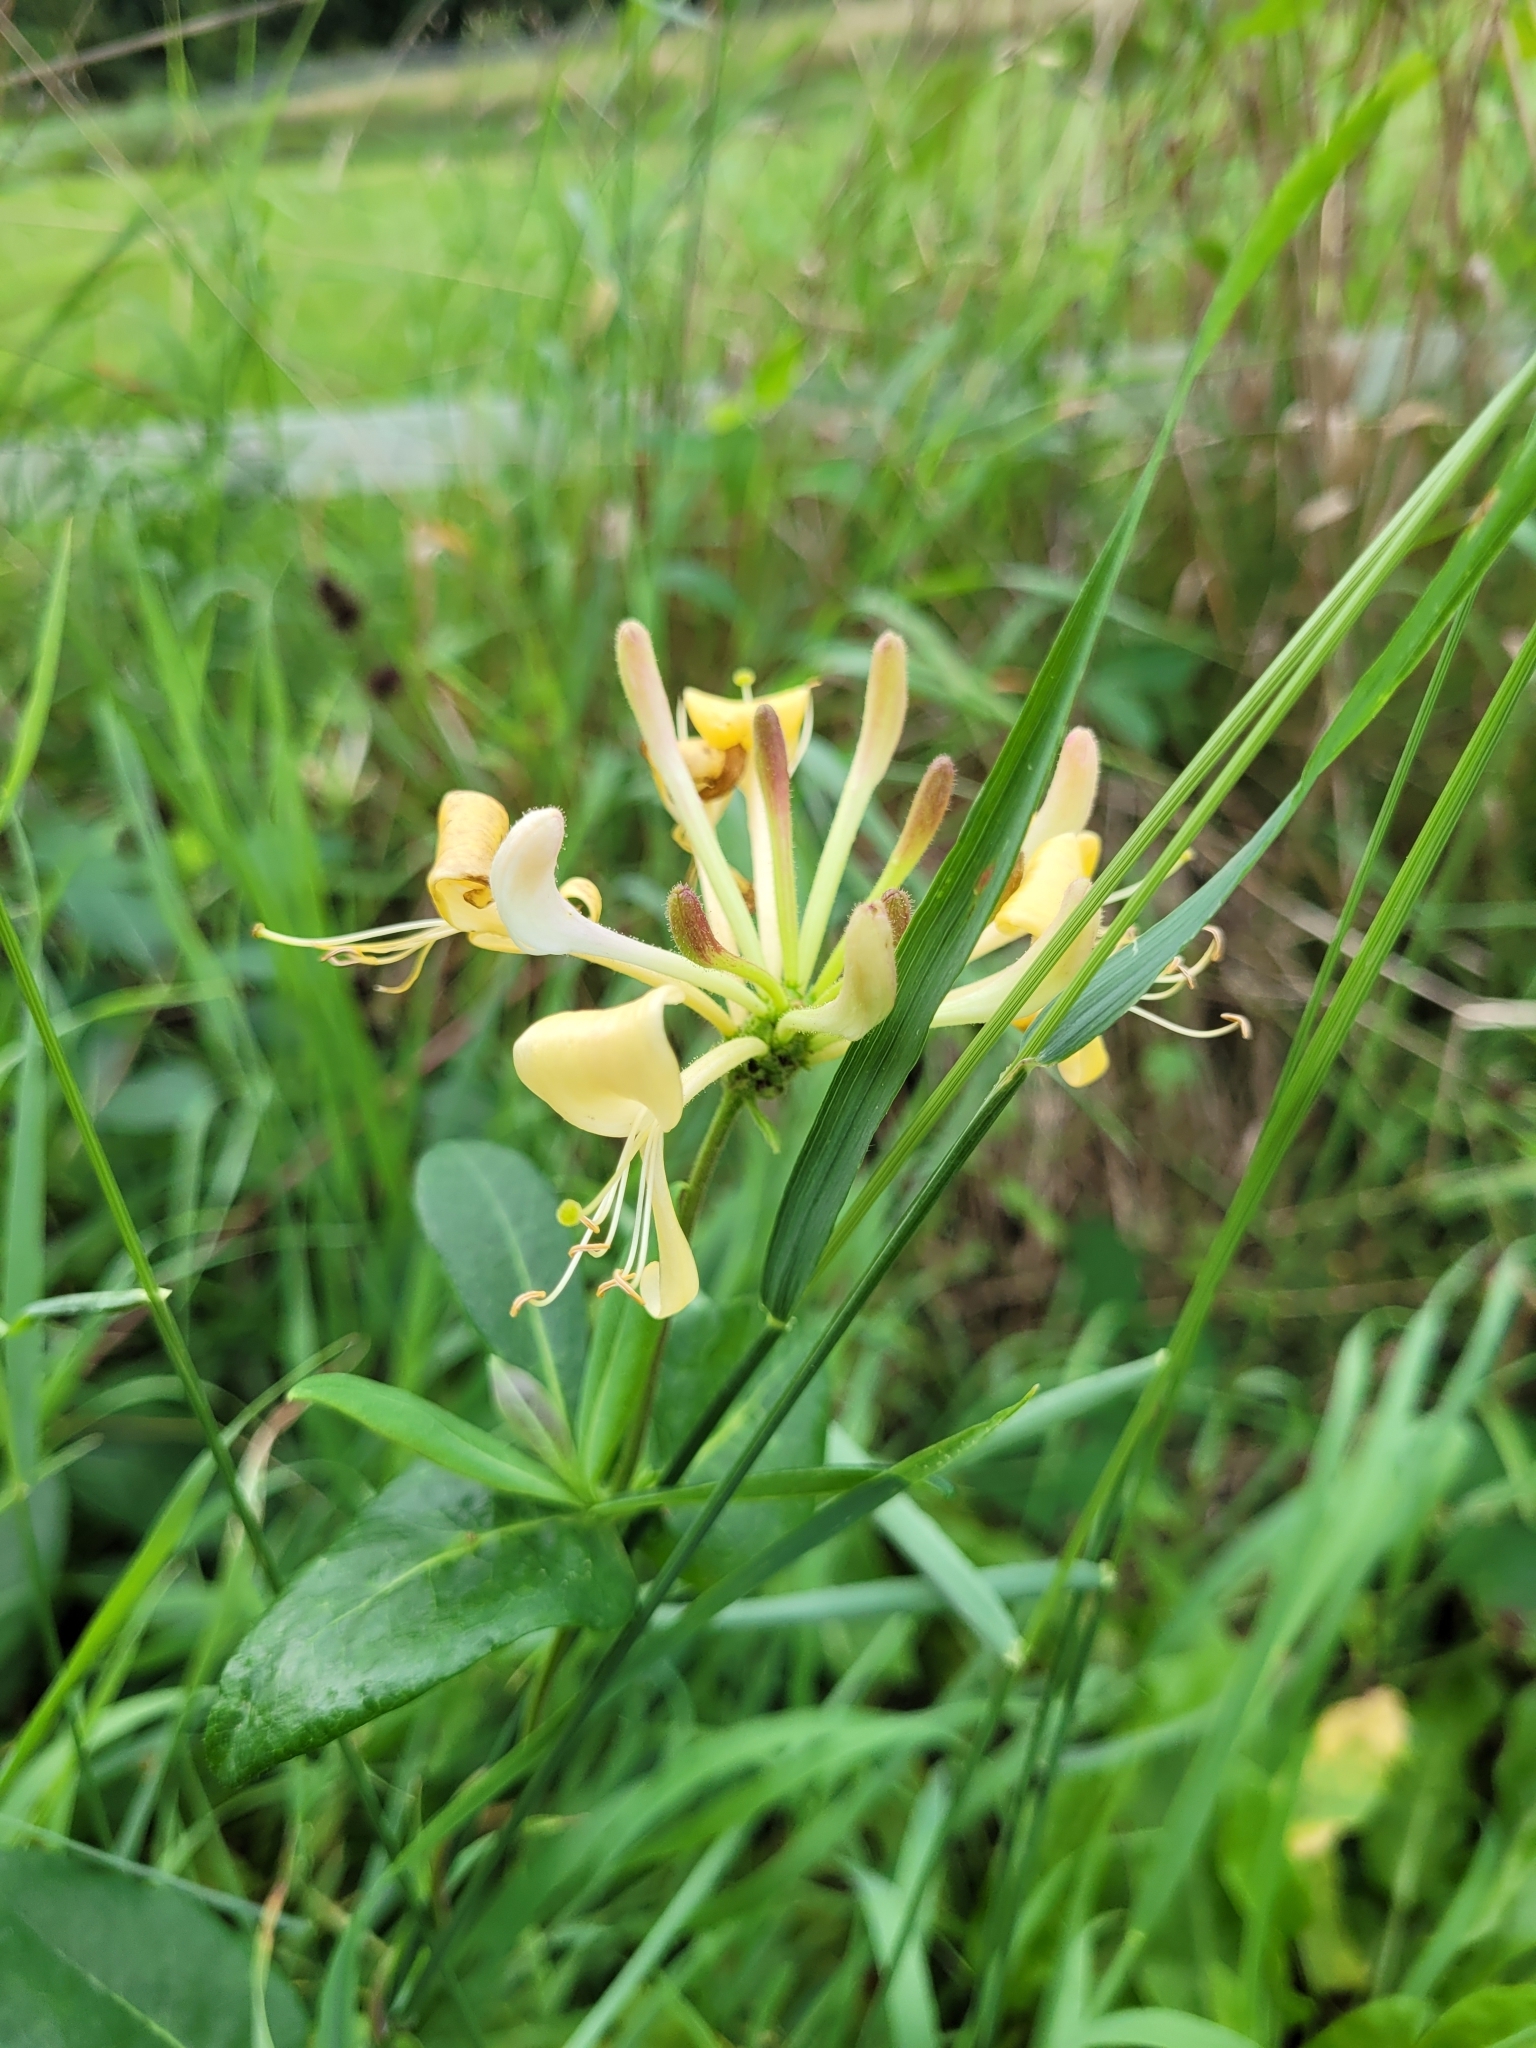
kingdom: Plantae
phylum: Tracheophyta
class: Magnoliopsida
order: Dipsacales
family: Caprifoliaceae
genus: Lonicera
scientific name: Lonicera periclymenum
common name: European honeysuckle
